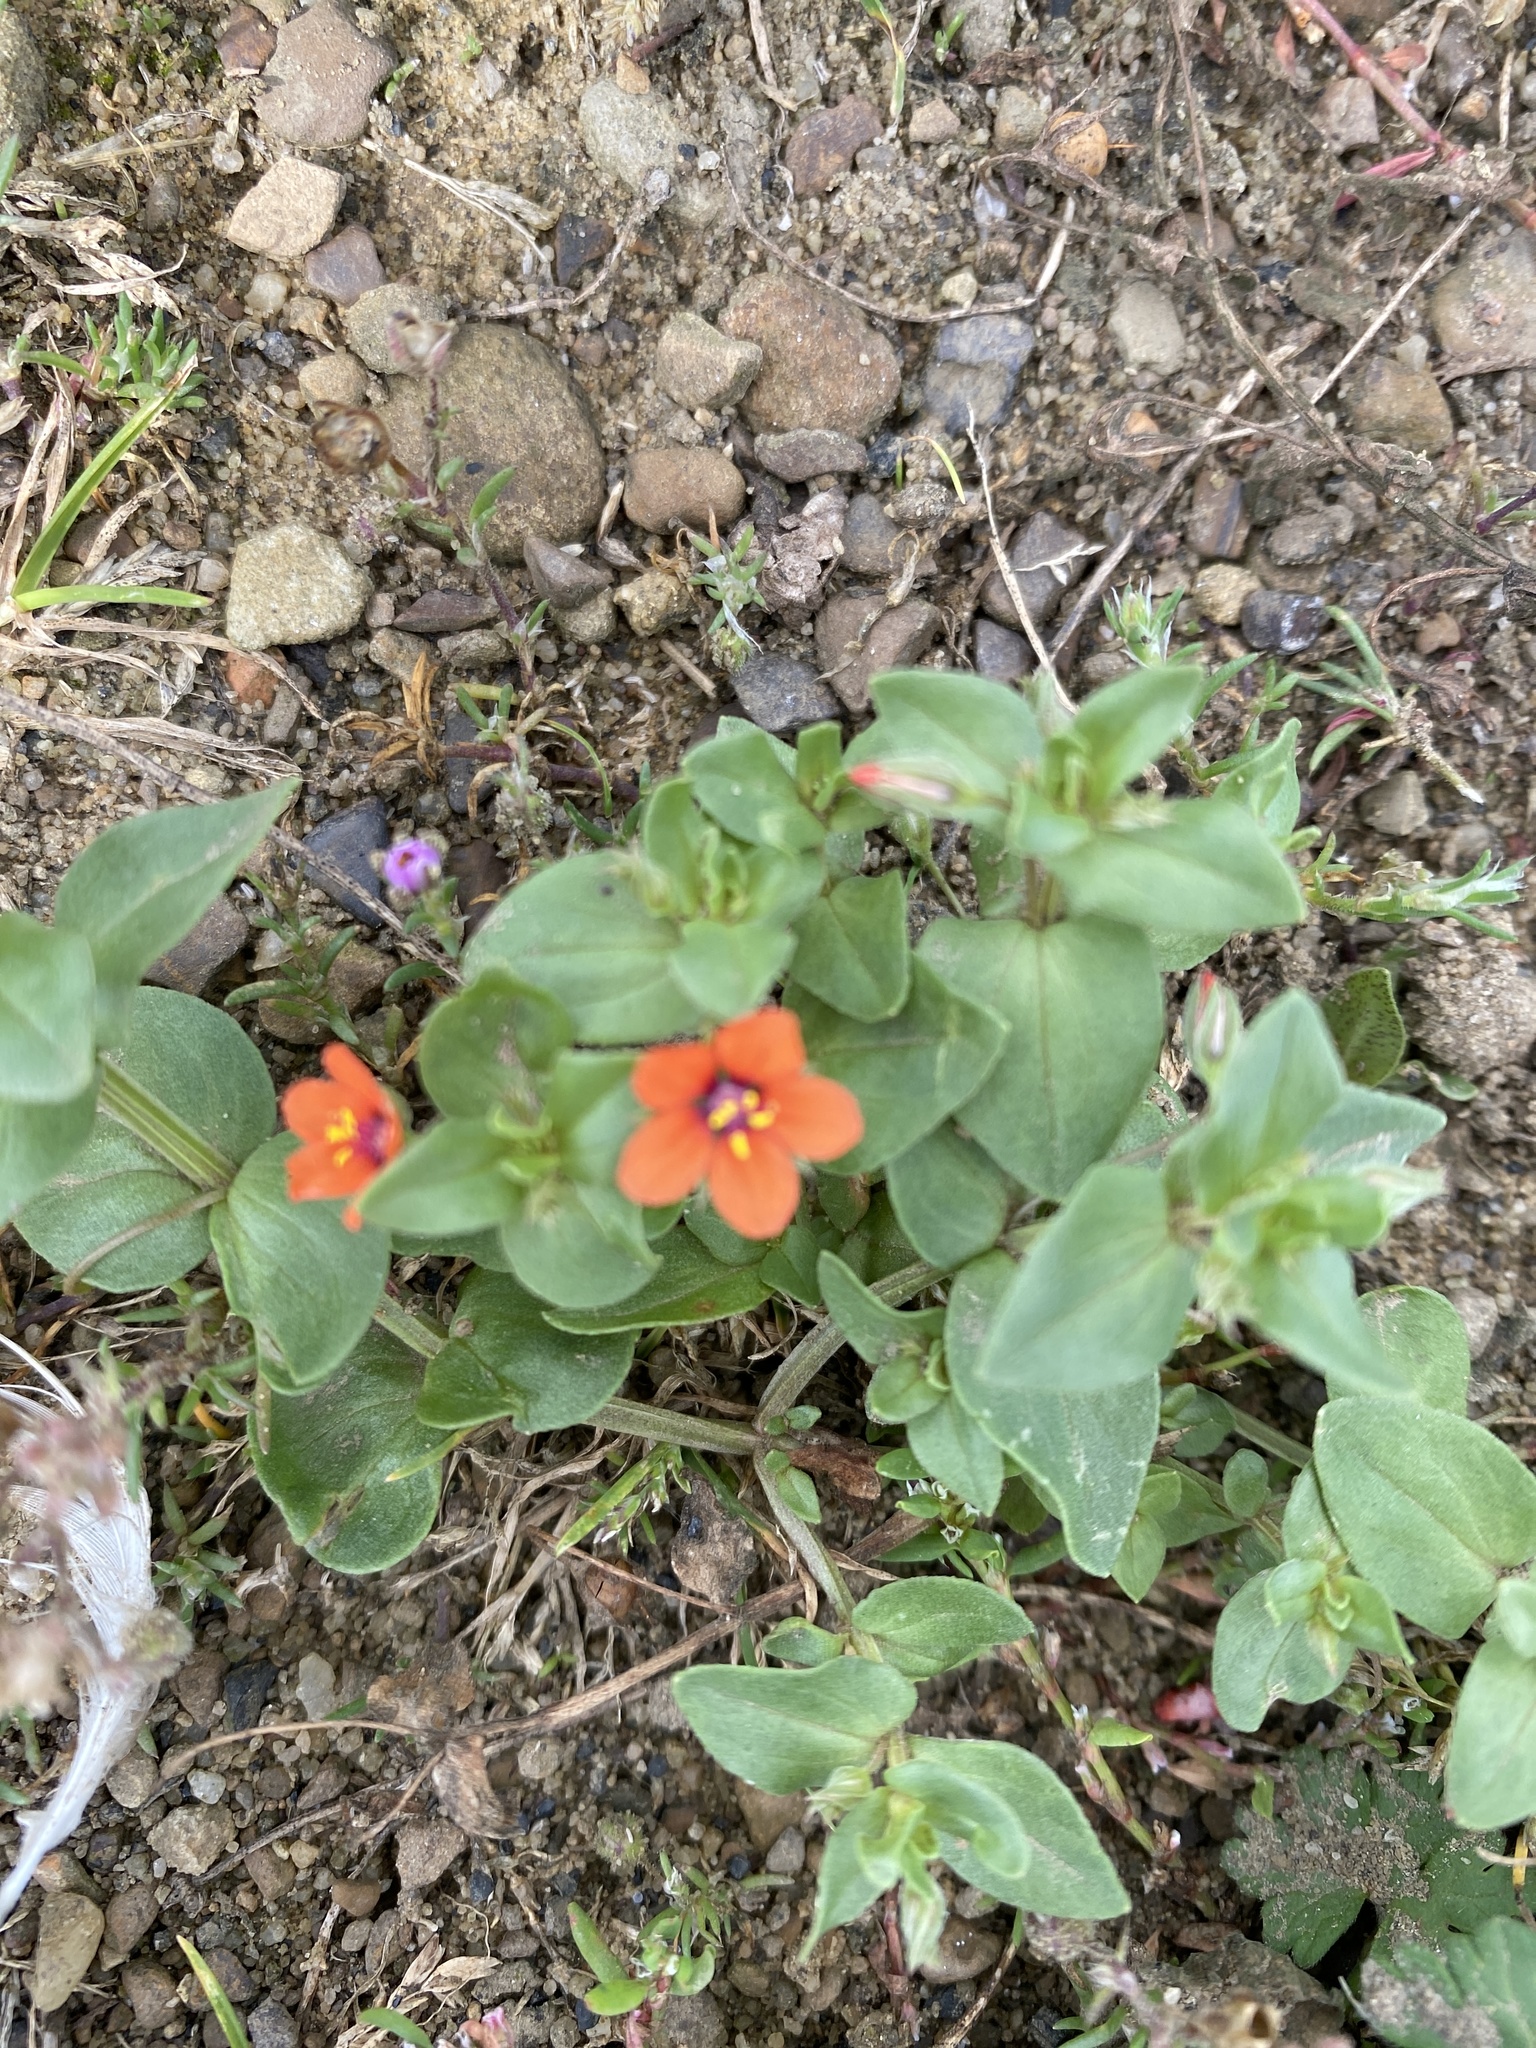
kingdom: Plantae
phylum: Tracheophyta
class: Magnoliopsida
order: Ericales
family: Primulaceae
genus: Lysimachia
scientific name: Lysimachia arvensis
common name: Scarlet pimpernel
